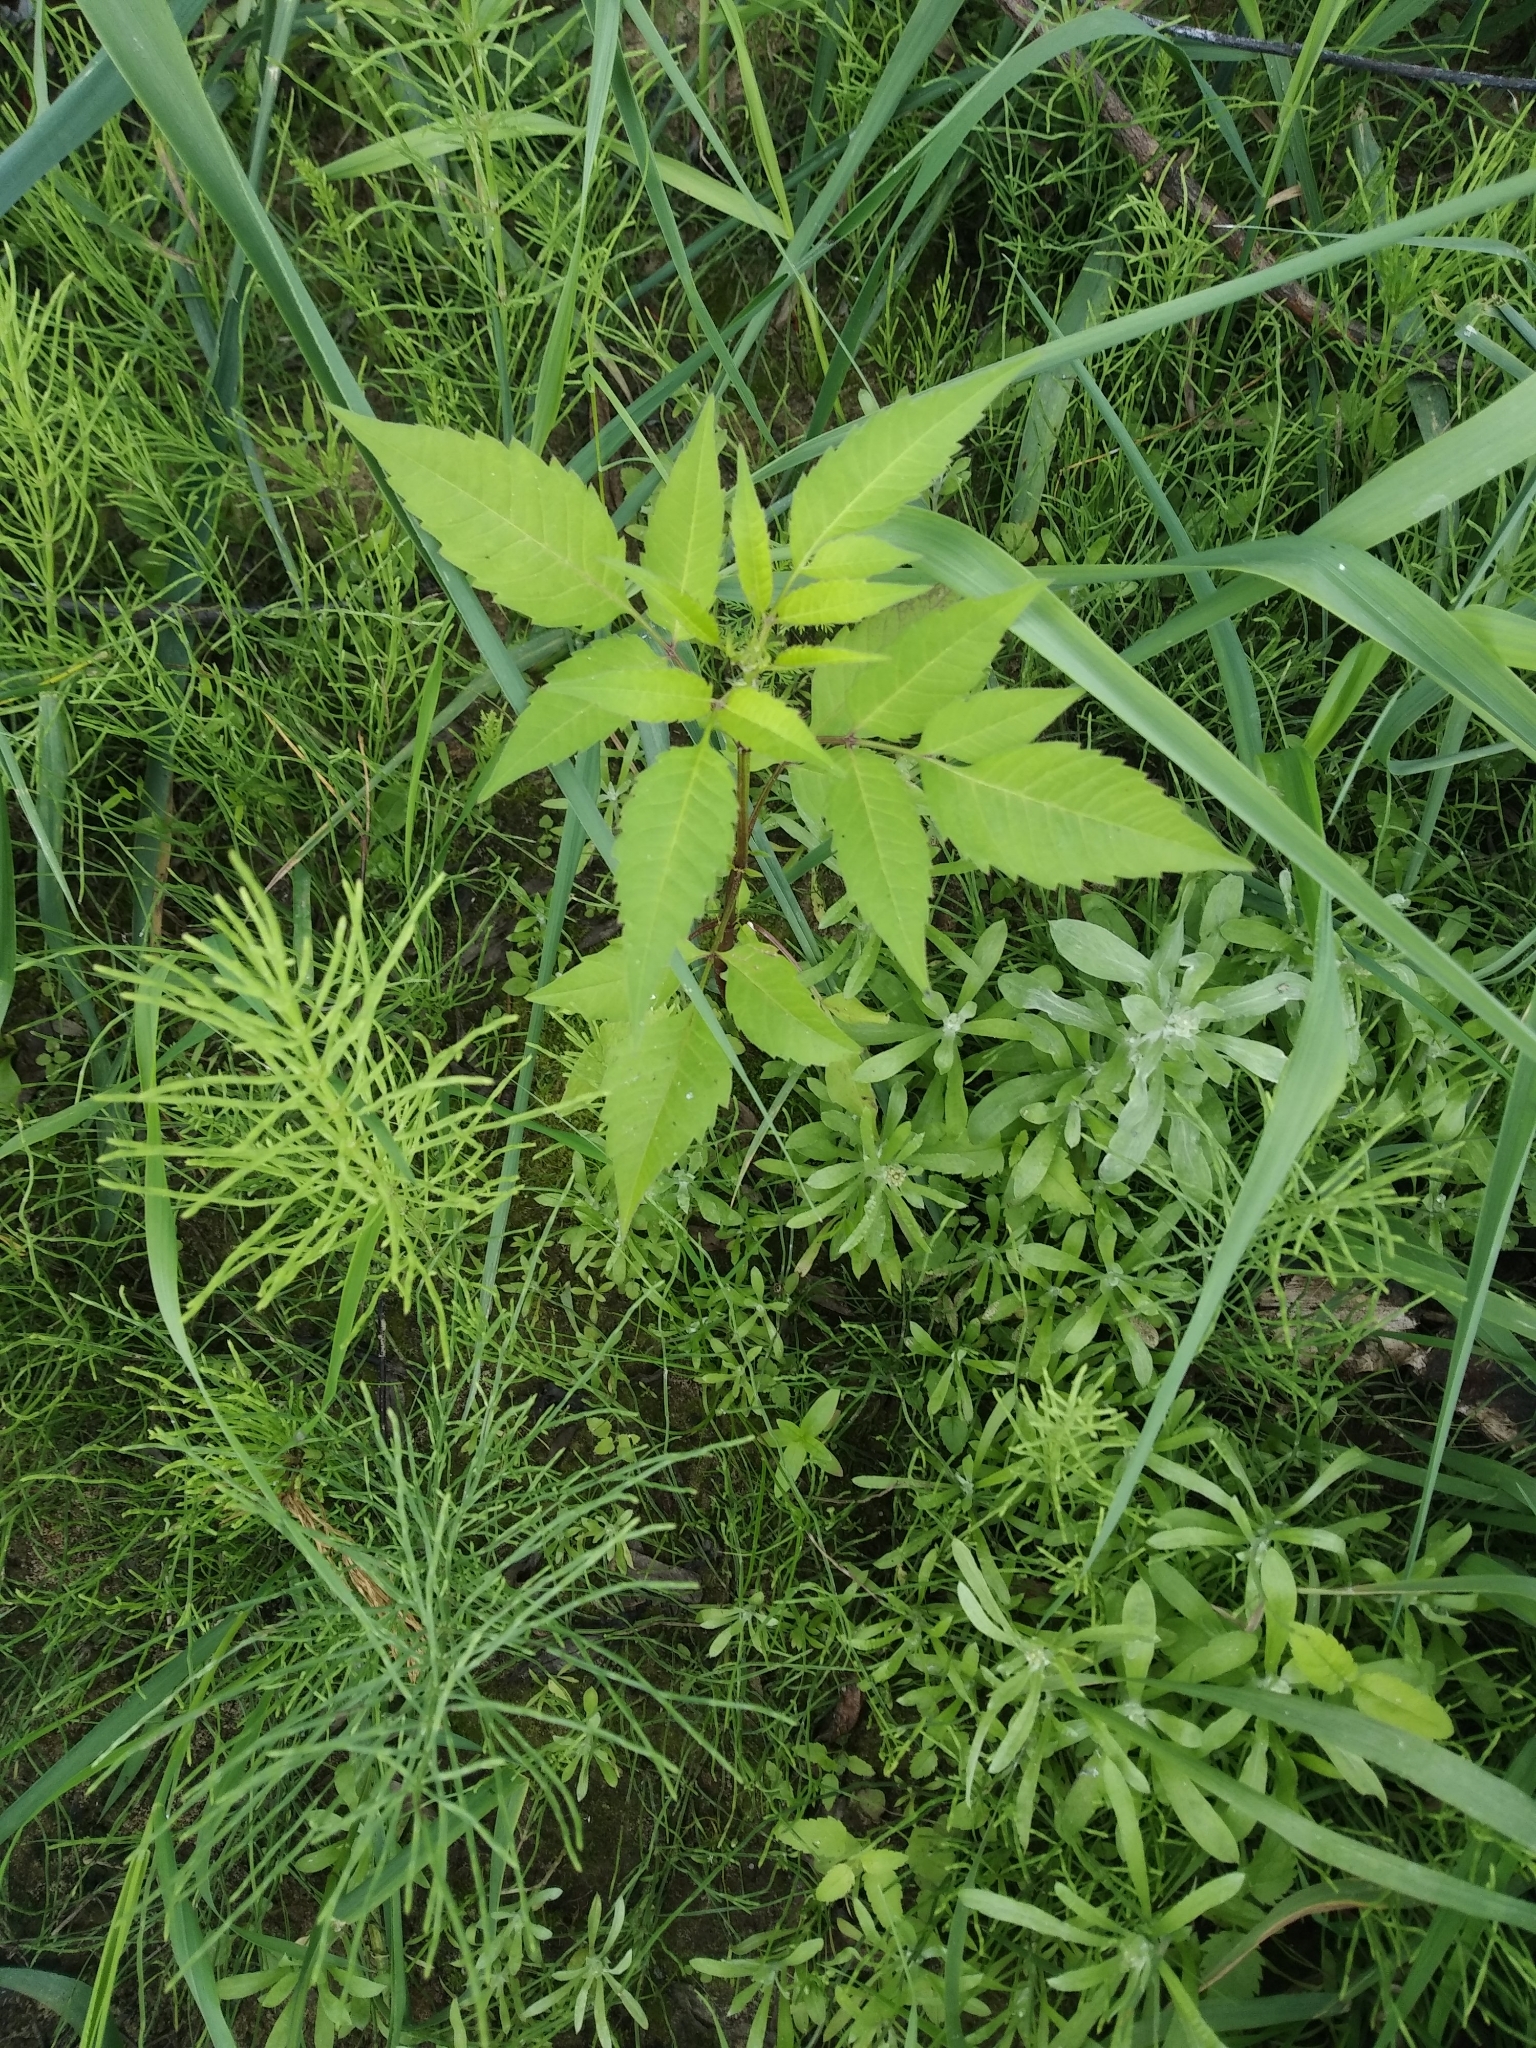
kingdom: Plantae
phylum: Tracheophyta
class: Magnoliopsida
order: Asterales
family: Asteraceae
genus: Bidens
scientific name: Bidens frondosa
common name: Beggarticks
